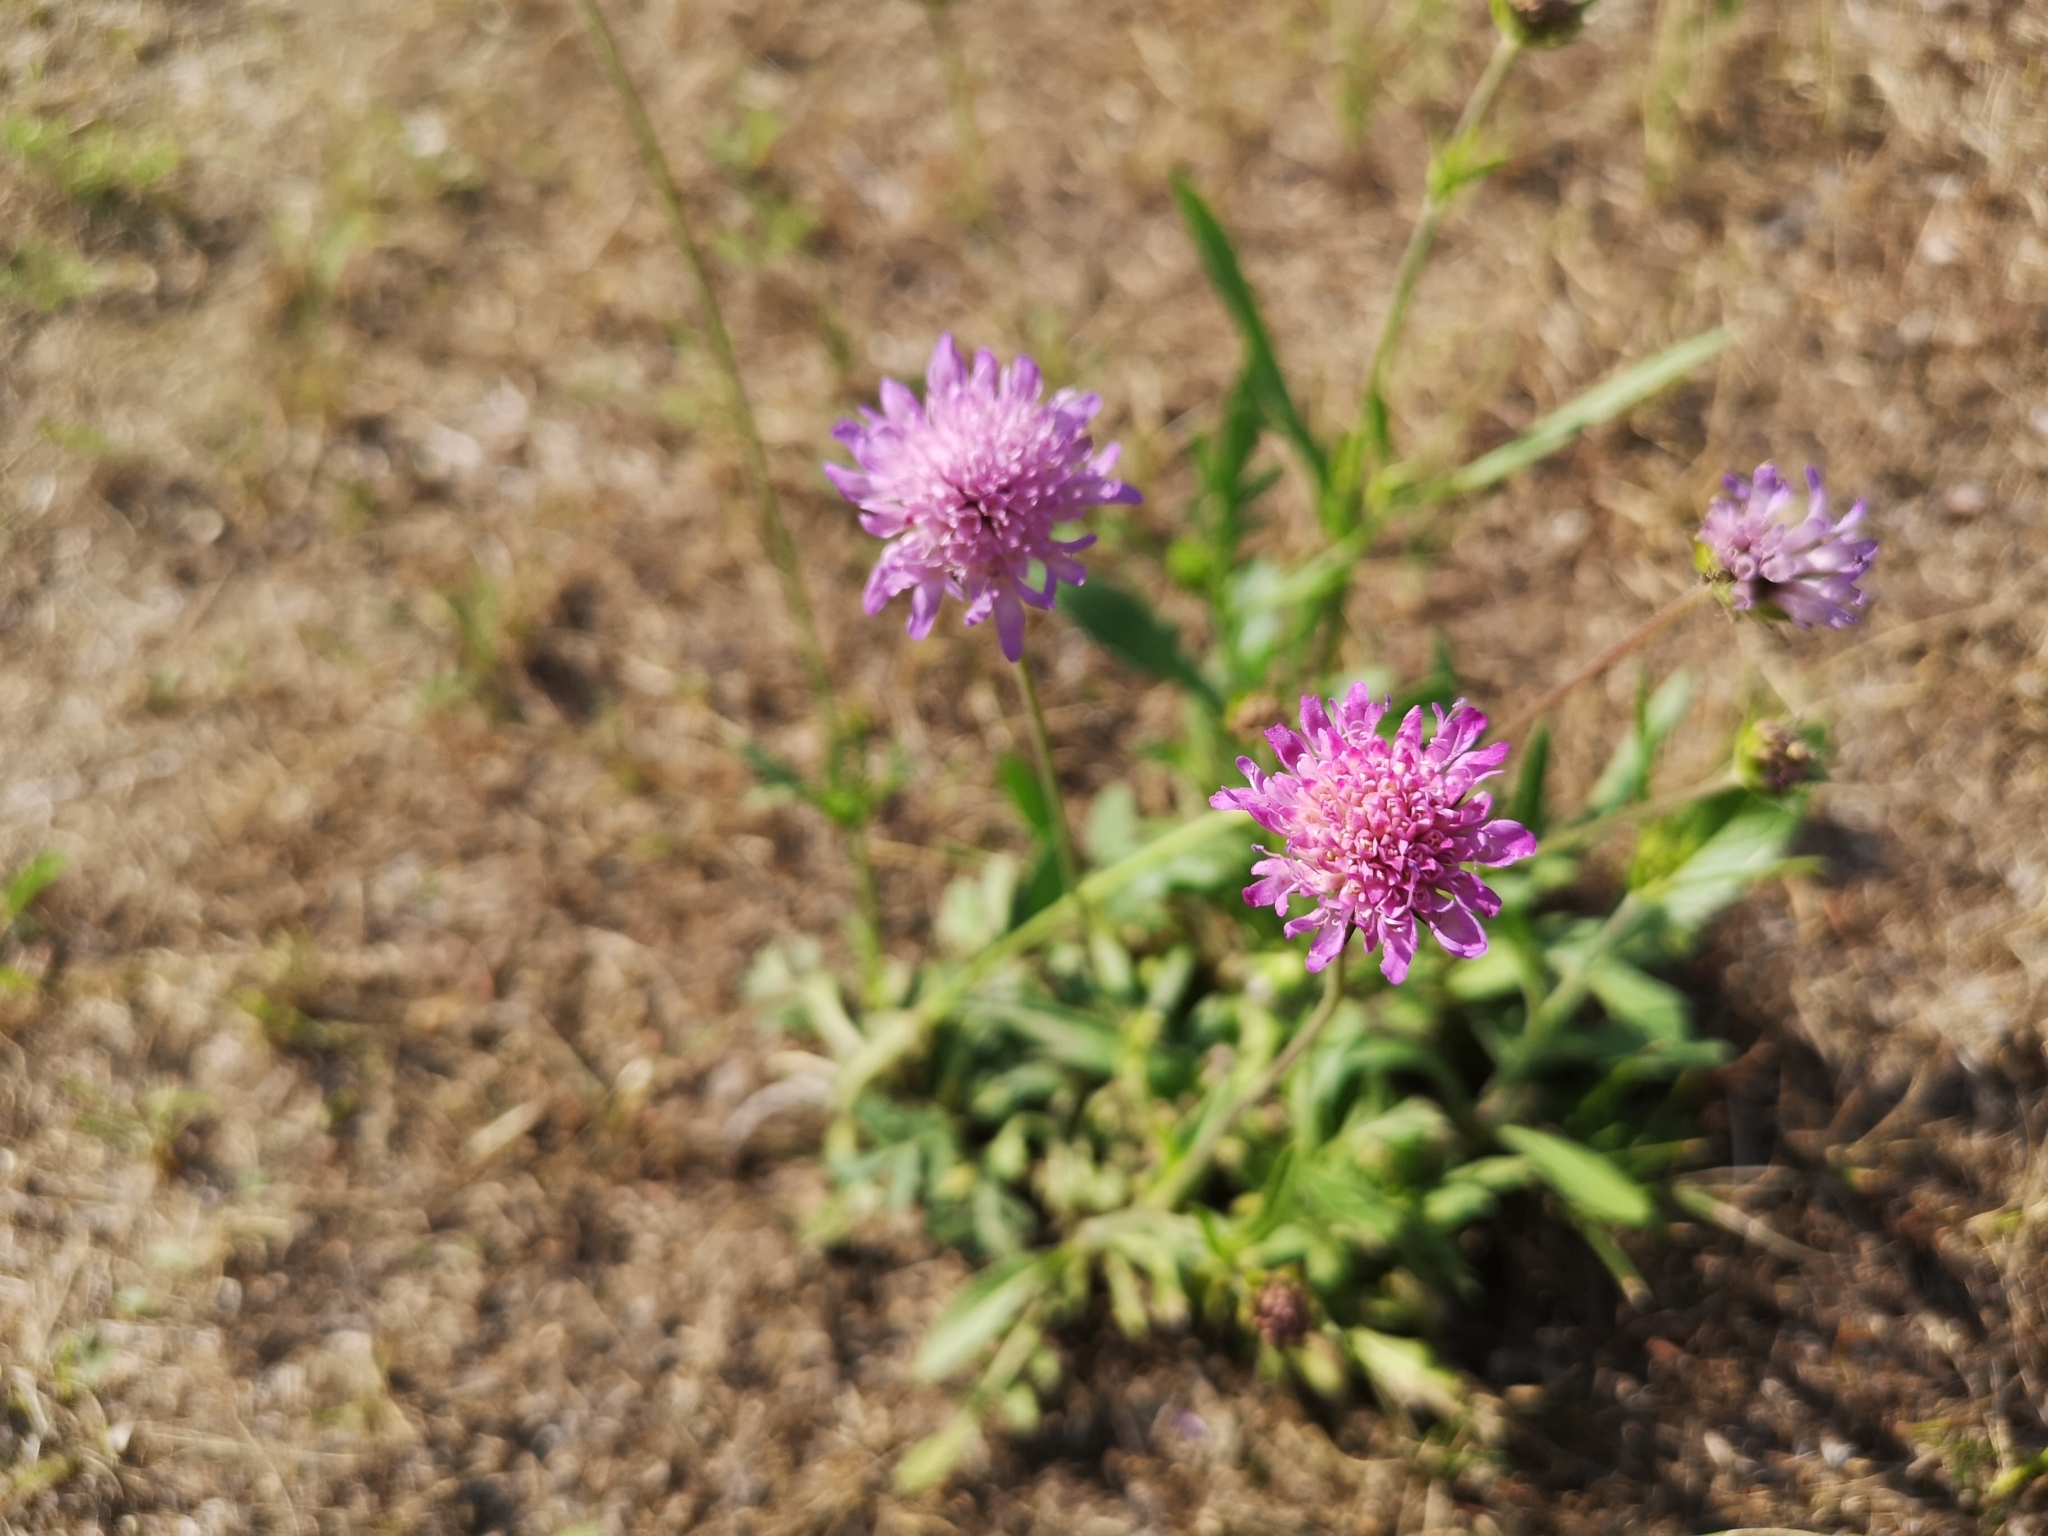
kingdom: Plantae
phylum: Tracheophyta
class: Magnoliopsida
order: Dipsacales
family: Caprifoliaceae
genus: Knautia
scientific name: Knautia arvensis
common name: Field scabiosa
